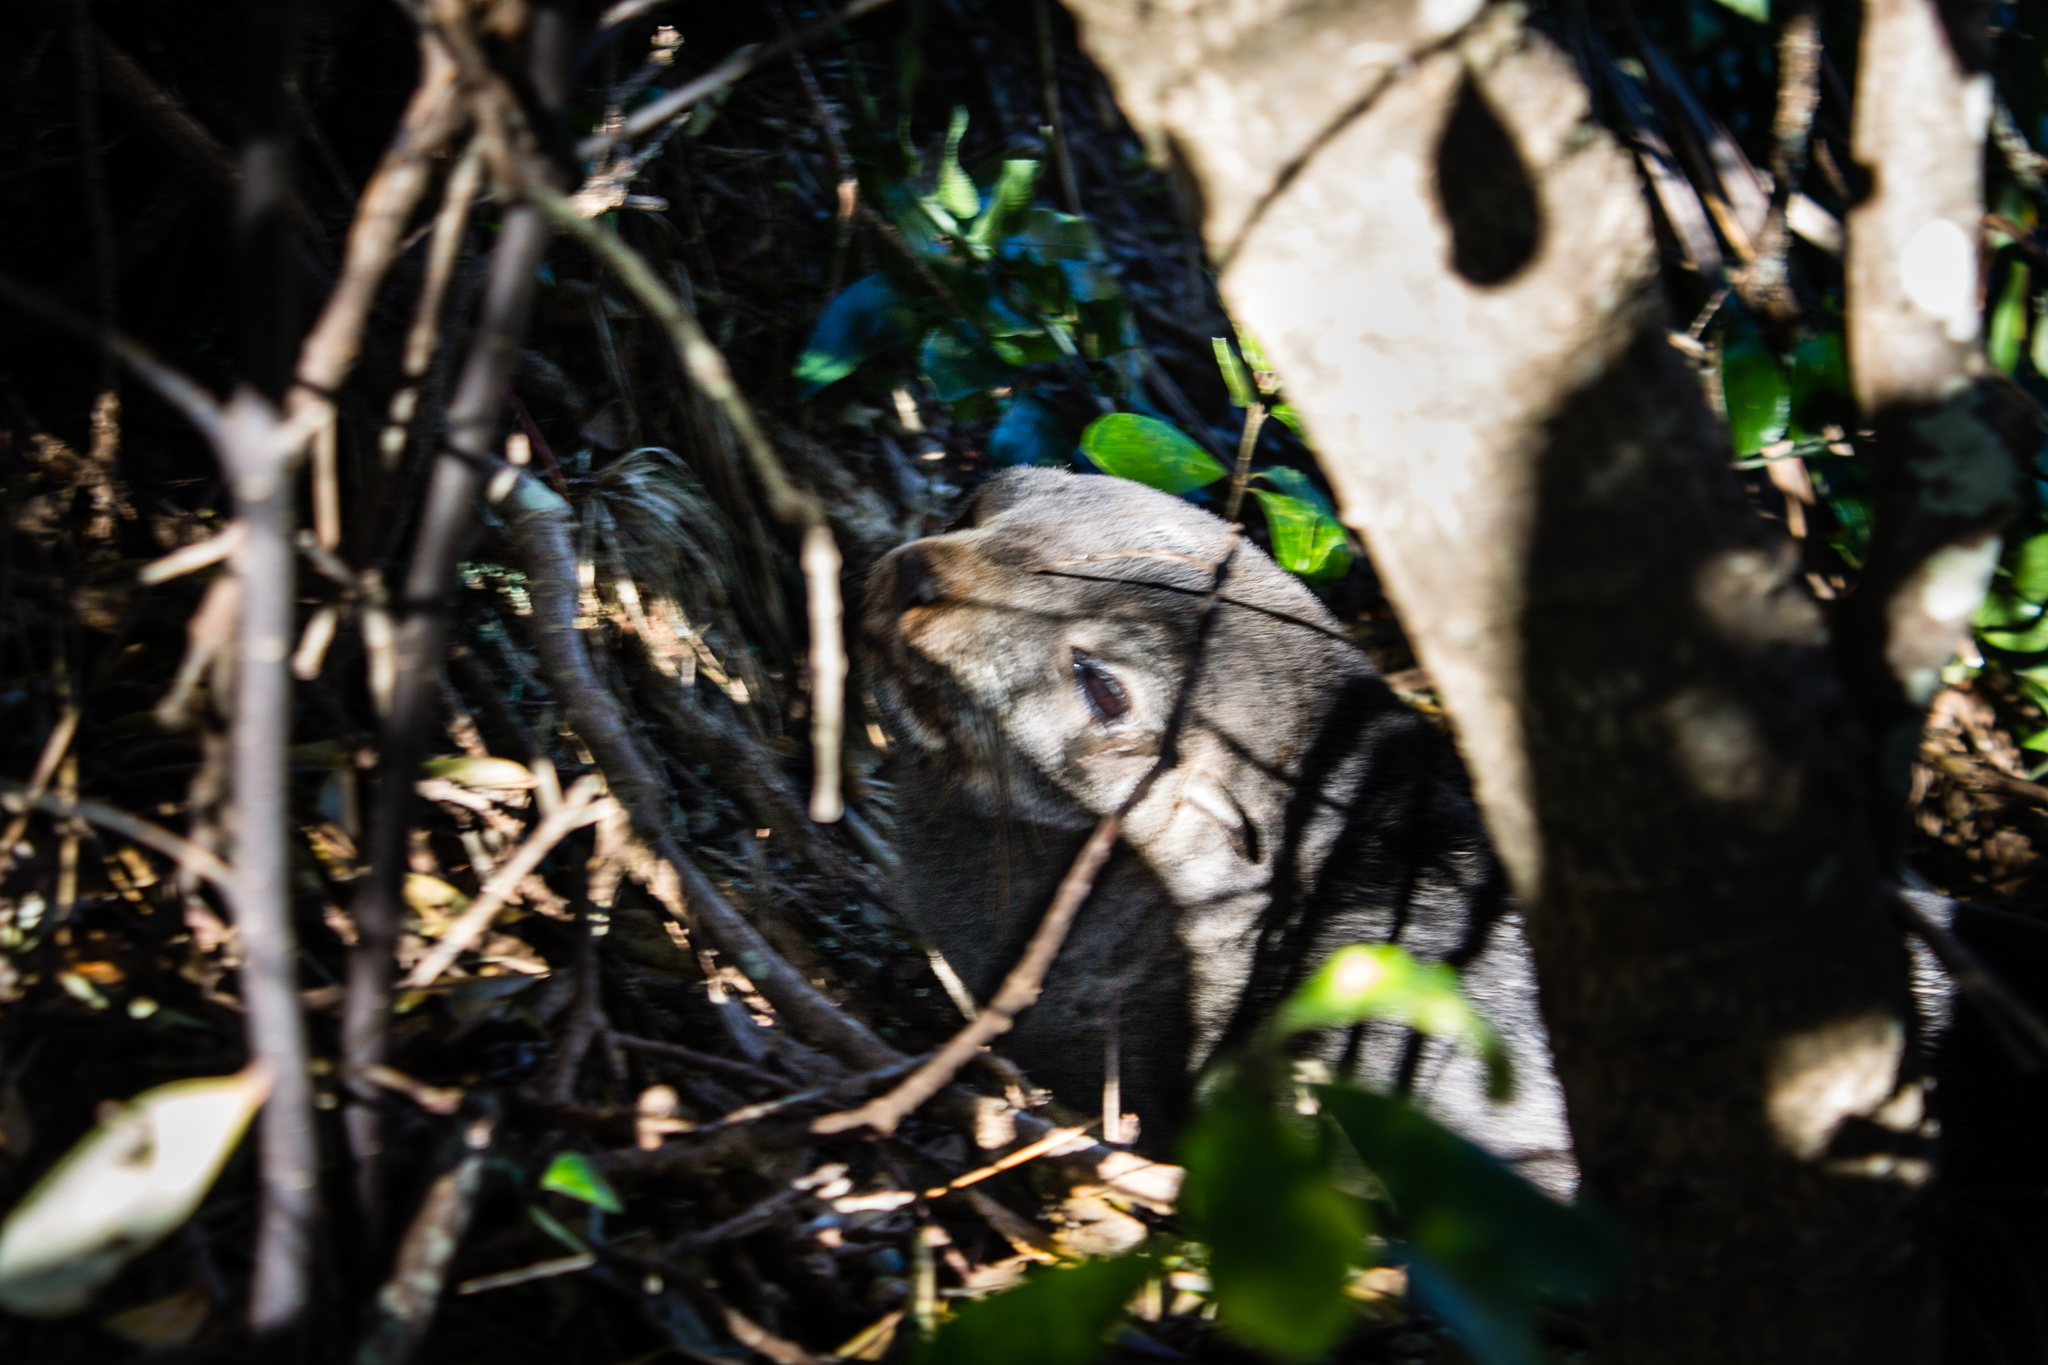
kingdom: Animalia
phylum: Chordata
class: Mammalia
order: Carnivora
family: Otariidae
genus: Arctocephalus
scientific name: Arctocephalus forsteri
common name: New zealand fur seal
